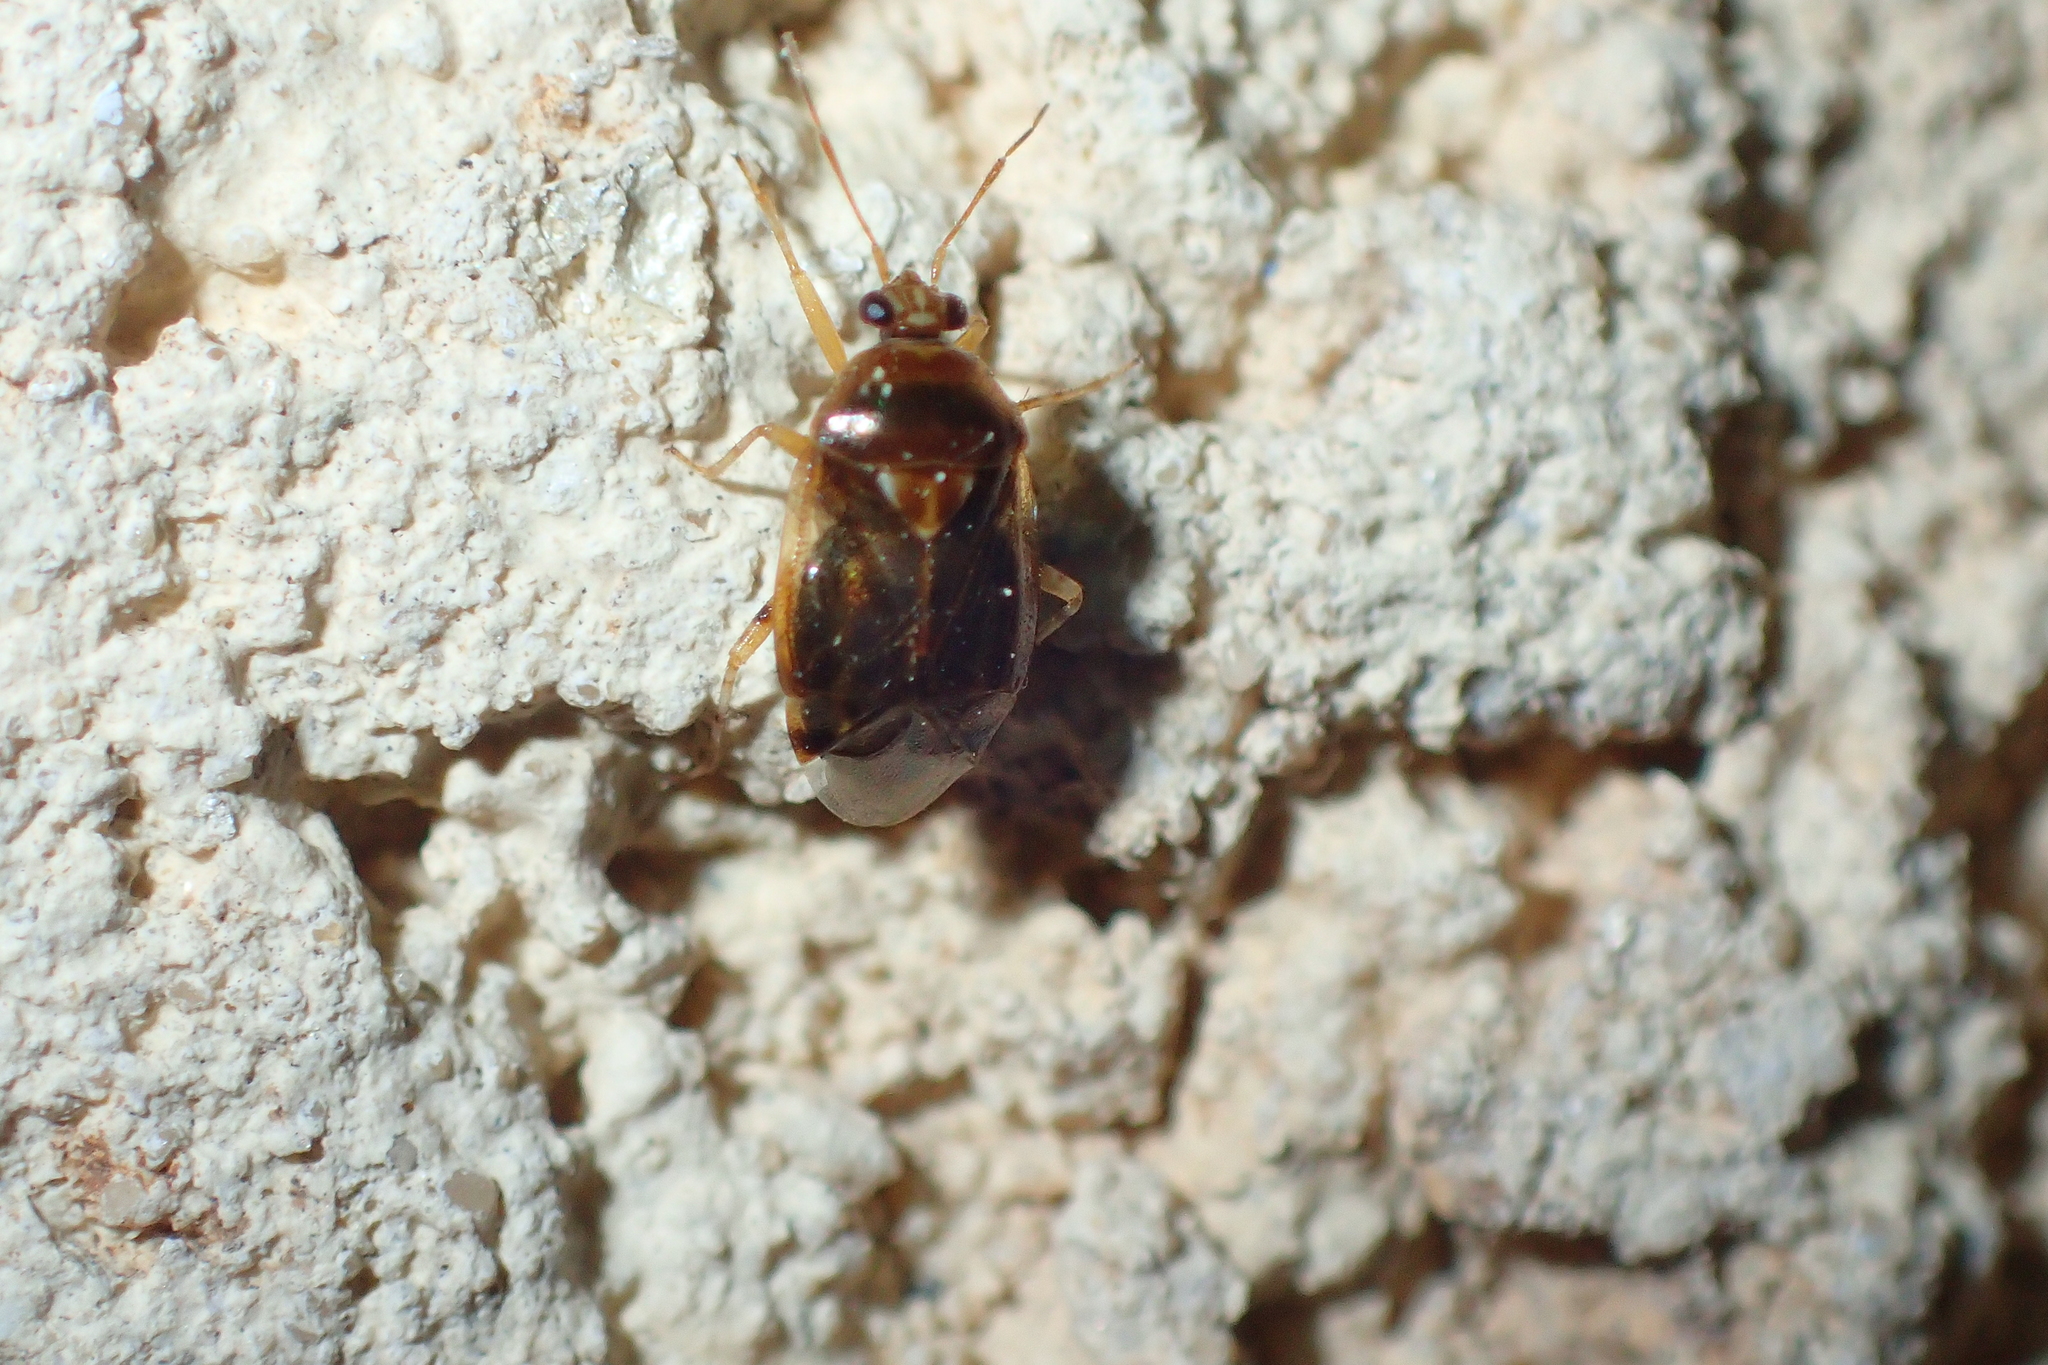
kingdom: Animalia
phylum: Arthropoda
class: Insecta
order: Hemiptera
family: Miridae
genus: Deraeocoris
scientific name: Deraeocoris lutescens
